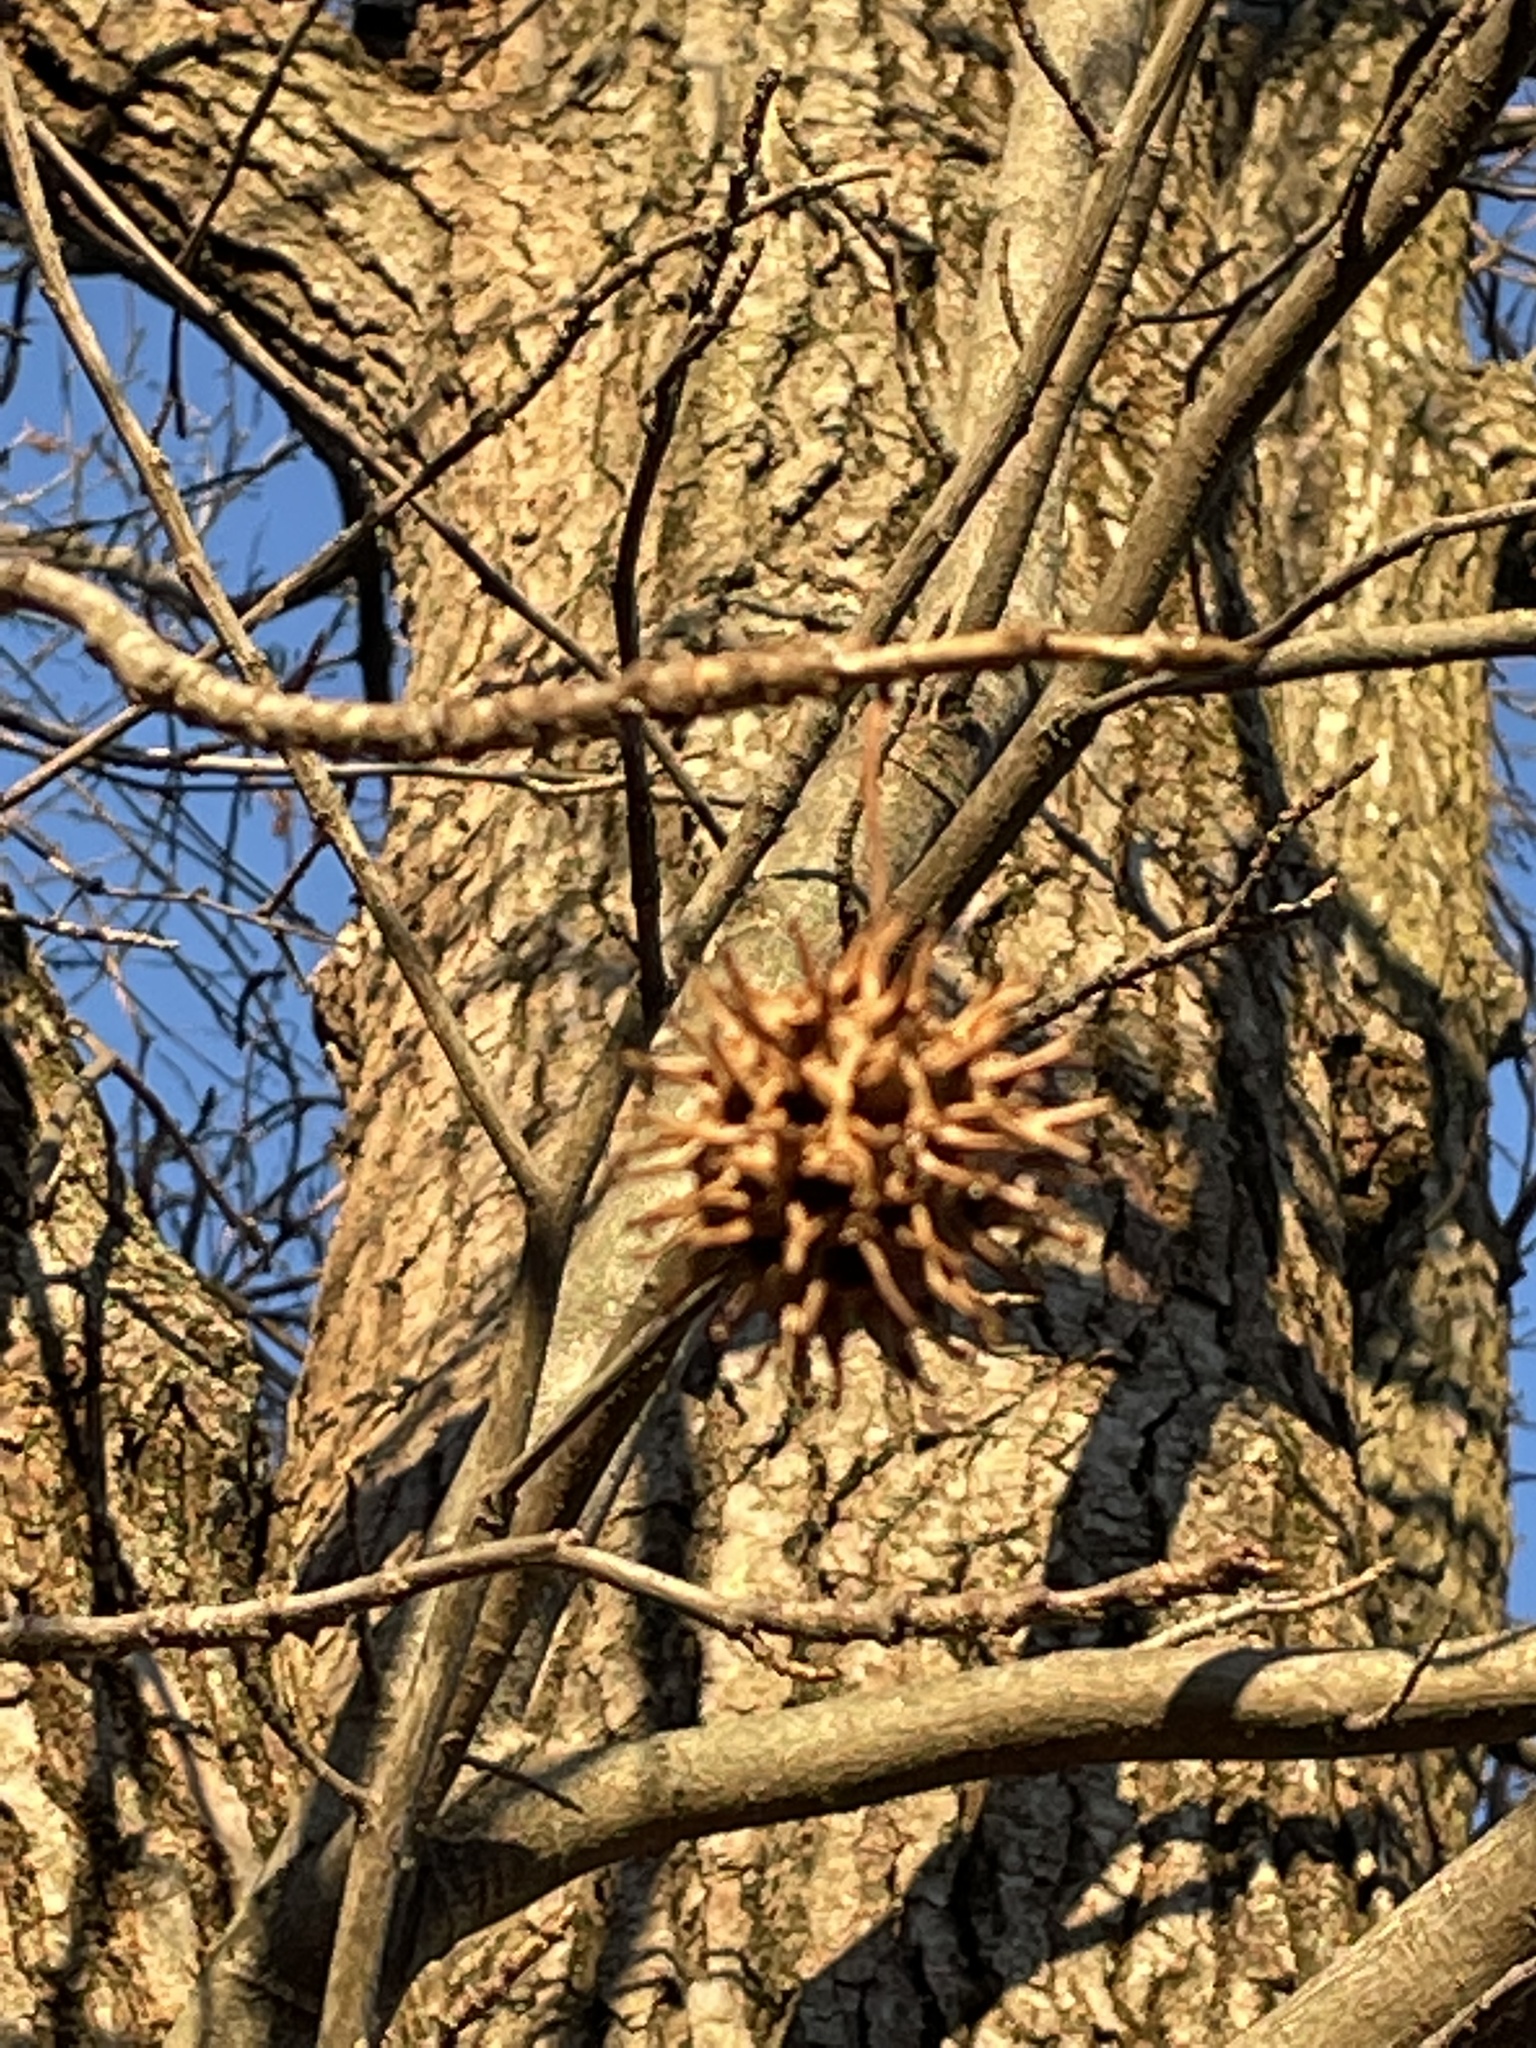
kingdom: Plantae
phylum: Tracheophyta
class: Magnoliopsida
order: Saxifragales
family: Altingiaceae
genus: Liquidambar
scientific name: Liquidambar styraciflua
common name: Sweet gum
